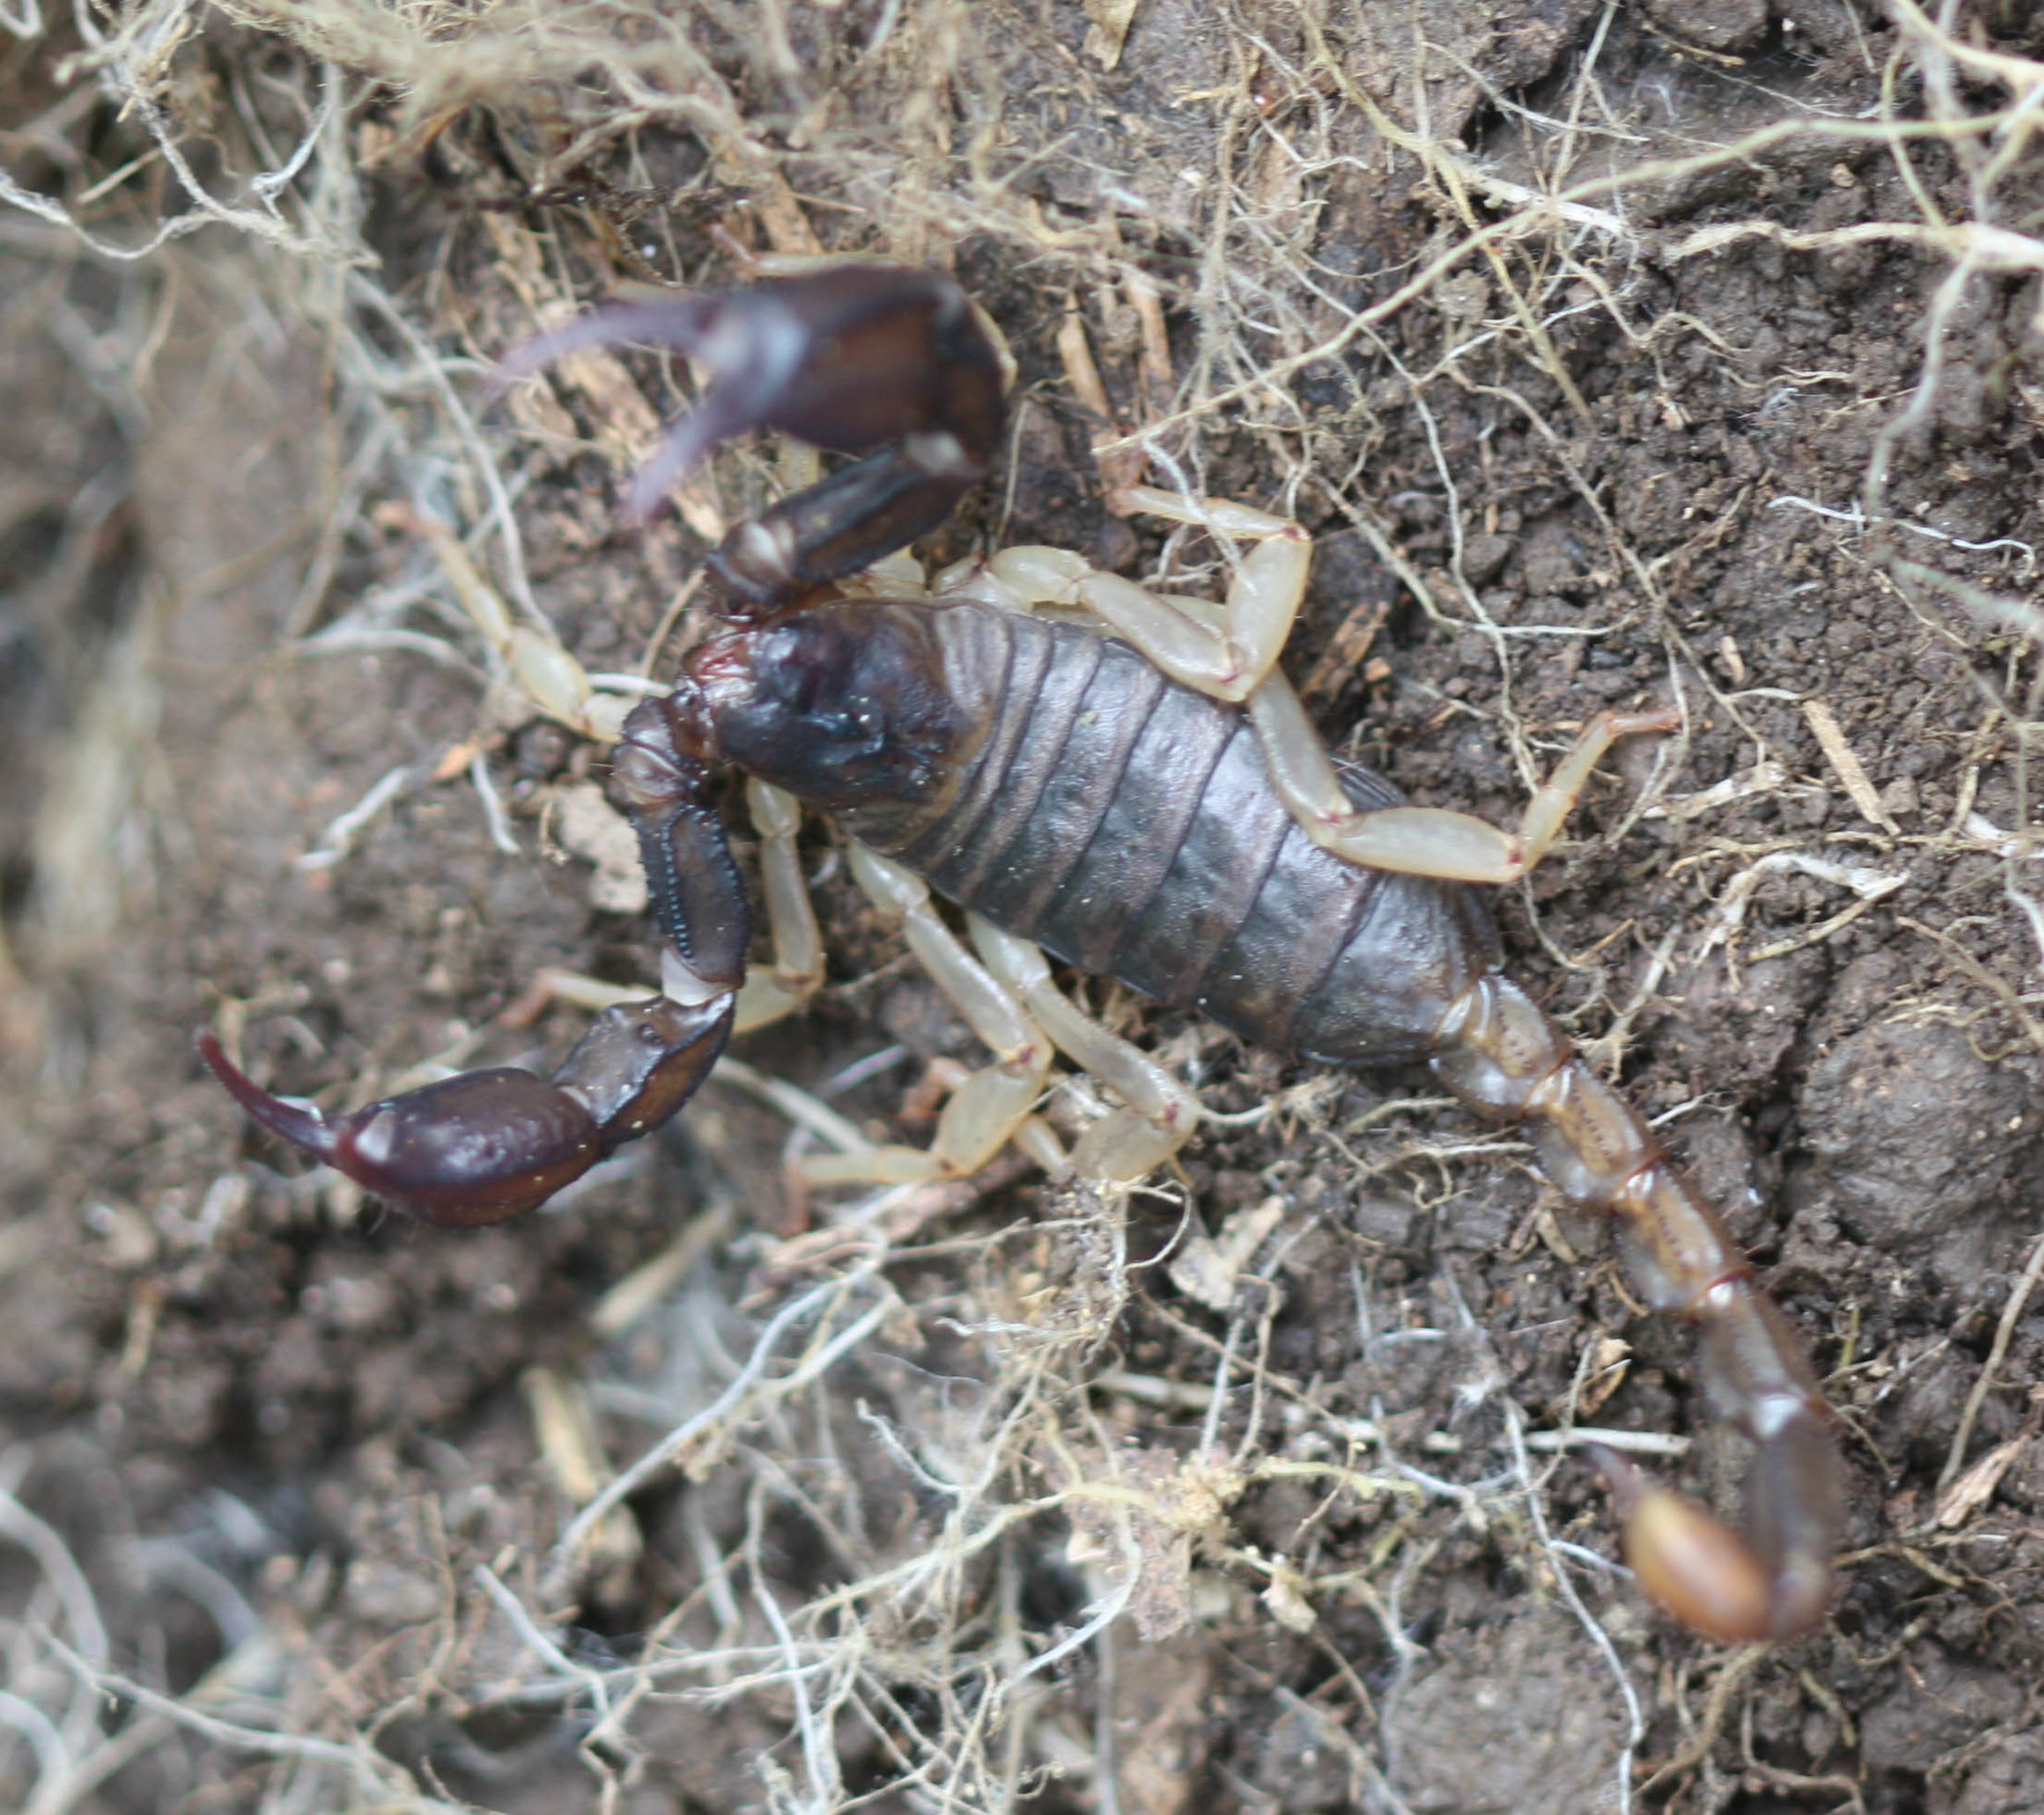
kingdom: Animalia
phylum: Arthropoda
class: Arachnida
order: Scorpiones
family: Chactidae
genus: Uroctonus
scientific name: Uroctonus mordax
